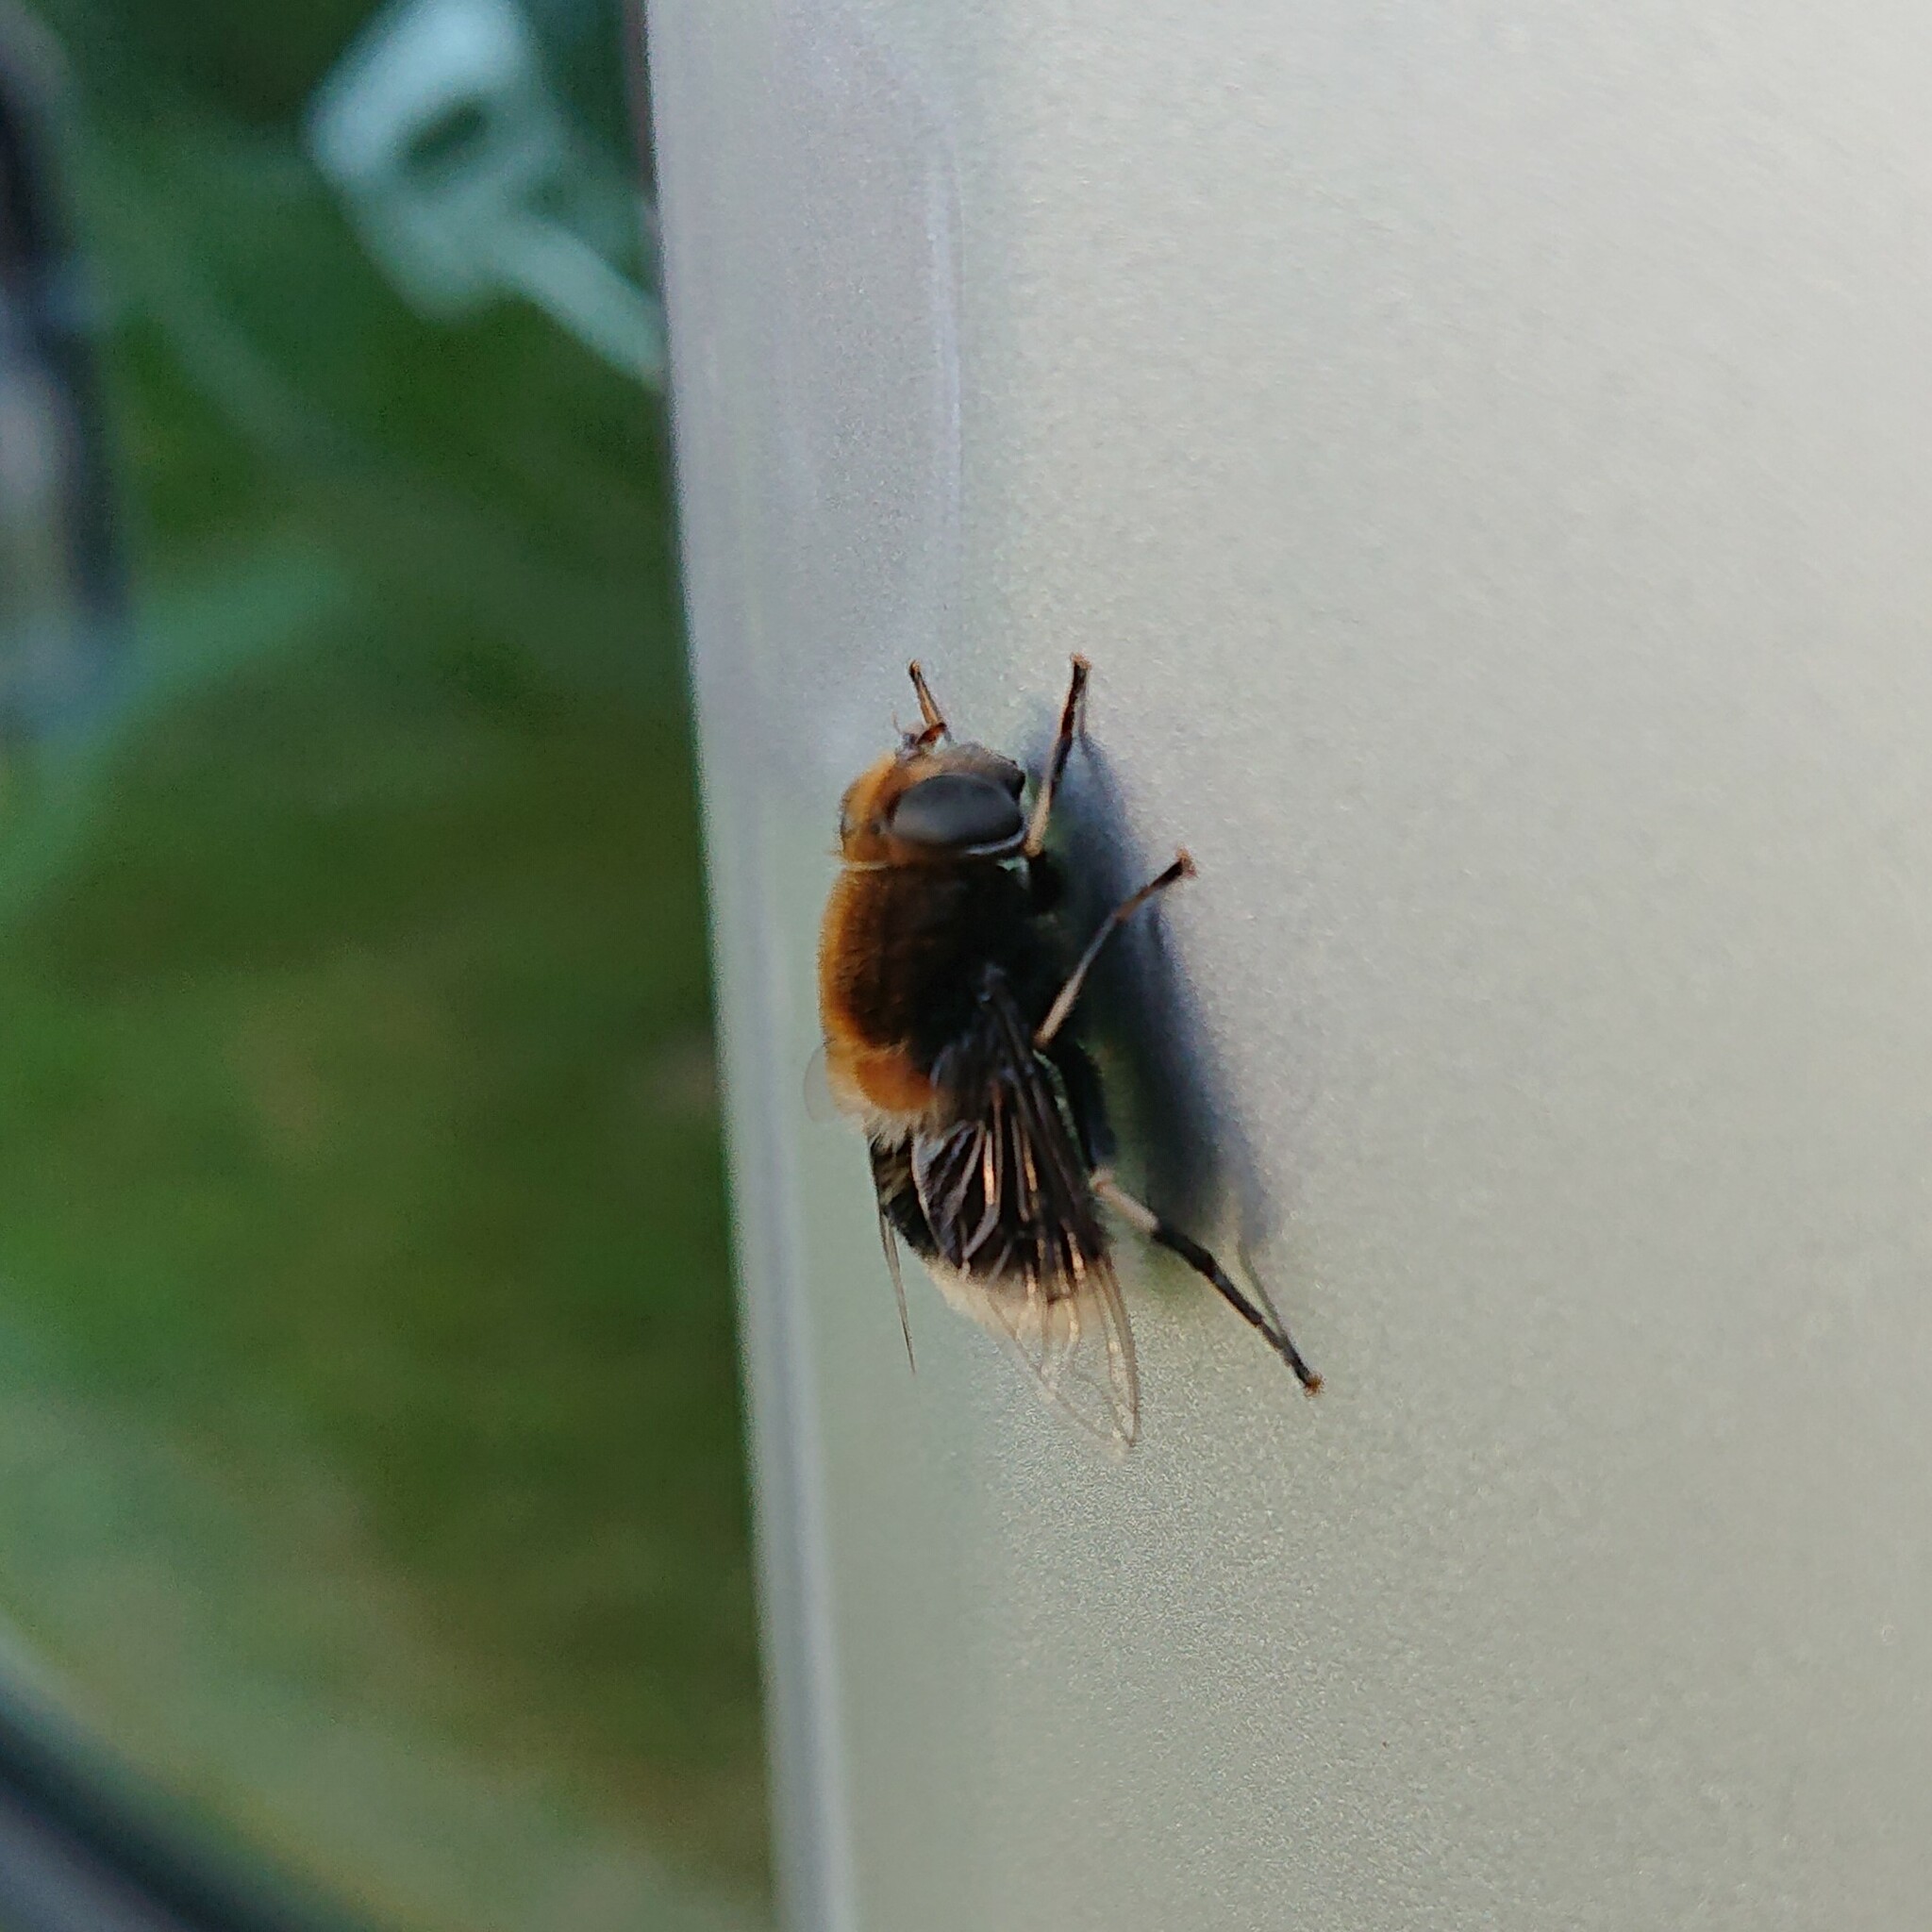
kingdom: Animalia
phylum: Arthropoda
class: Insecta
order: Diptera
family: Syrphidae
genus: Eristalis
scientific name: Eristalis intricaria
